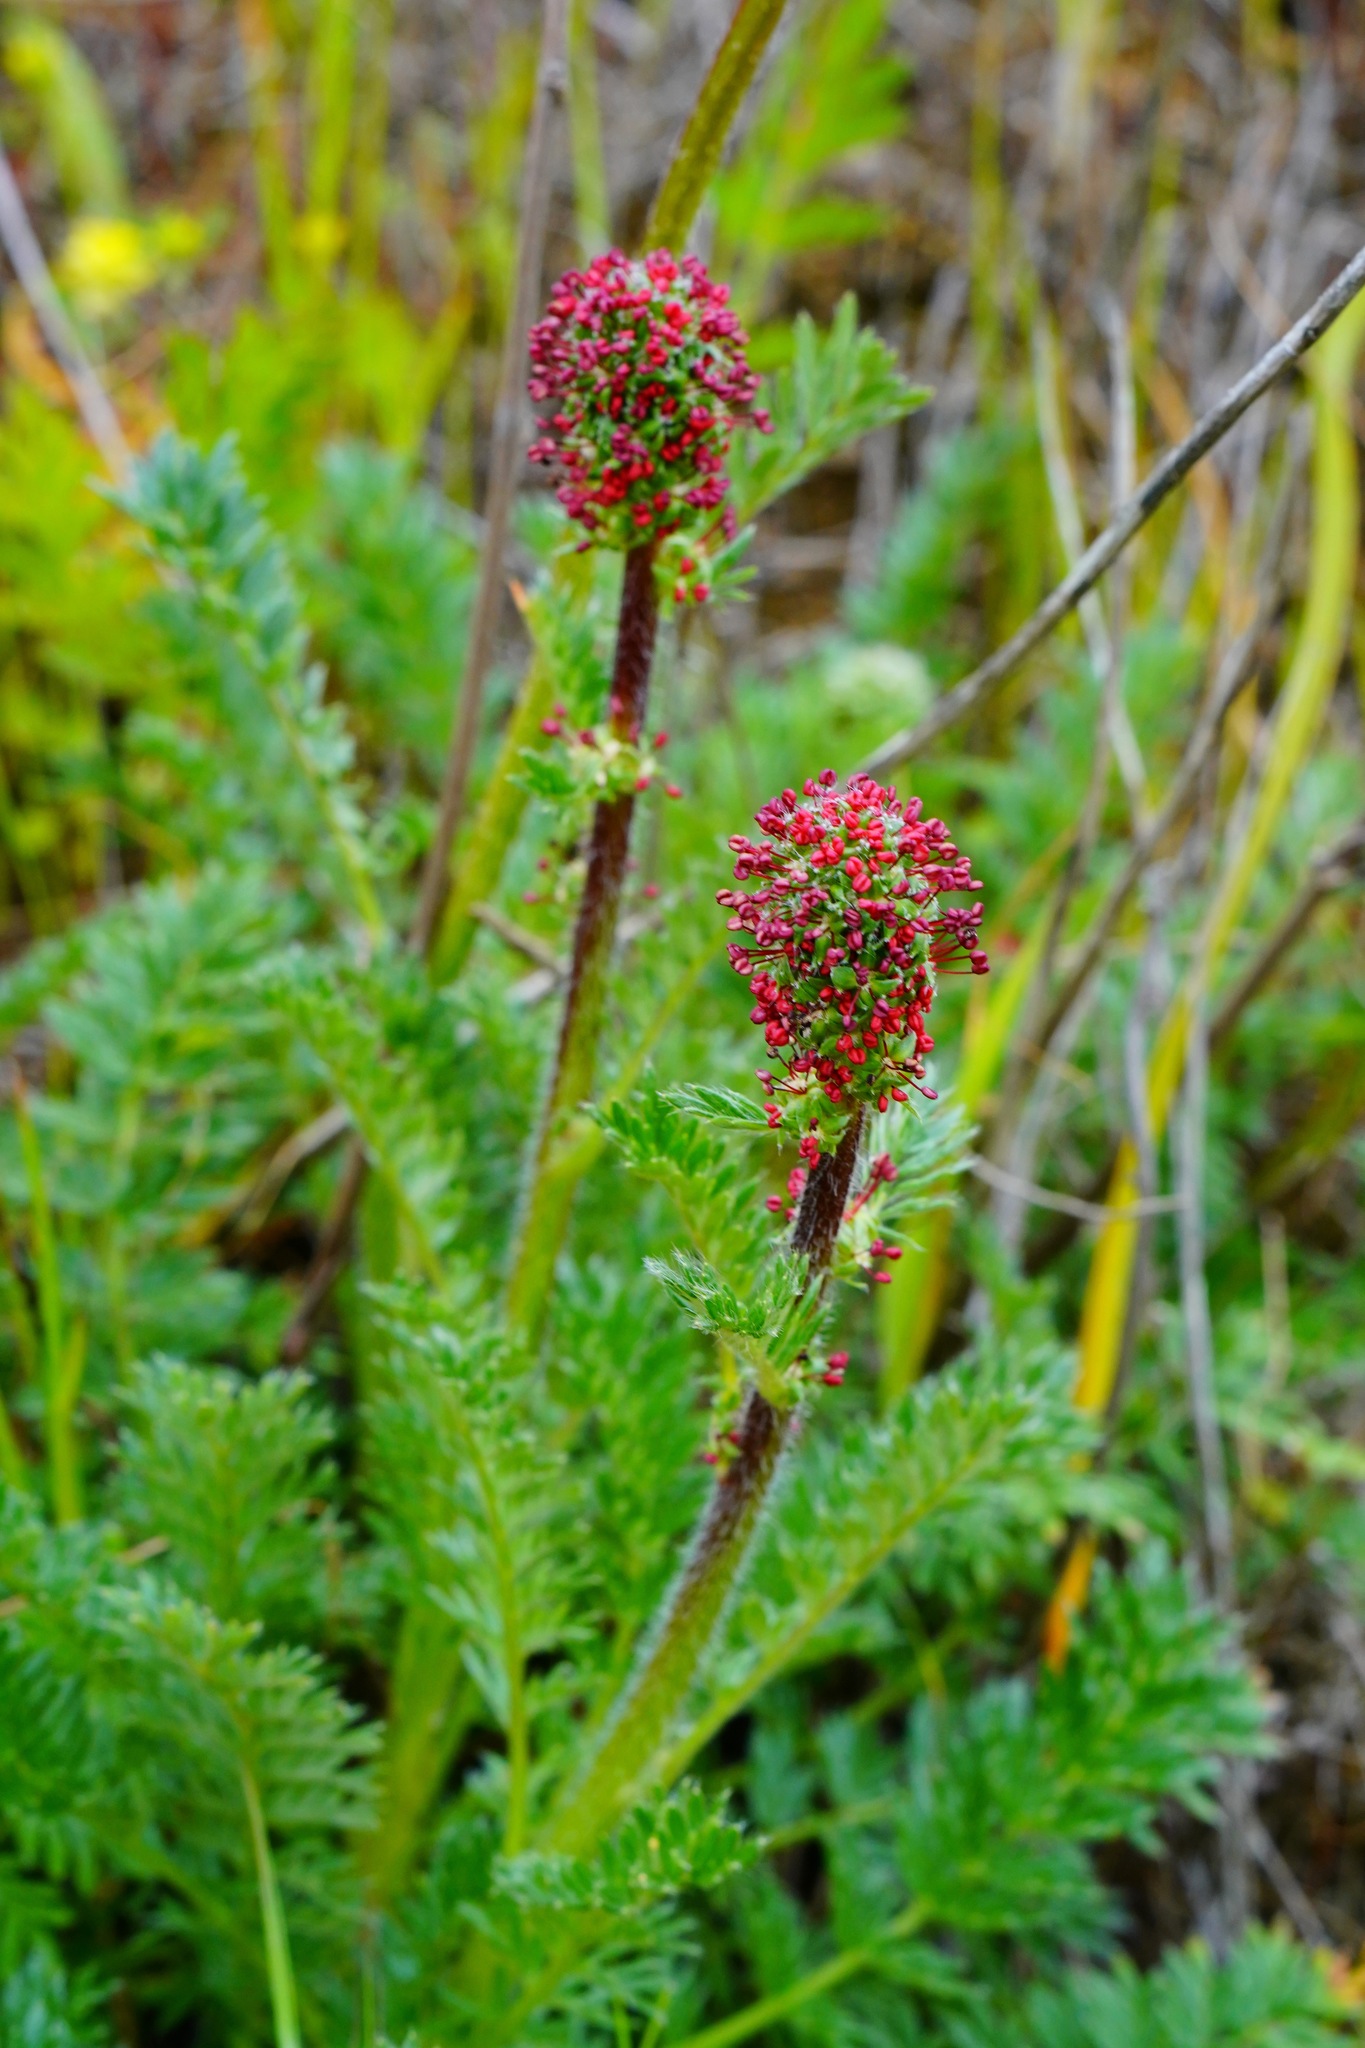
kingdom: Plantae
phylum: Tracheophyta
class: Magnoliopsida
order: Rosales
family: Rosaceae
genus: Acaena
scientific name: Acaena pinnatifida
